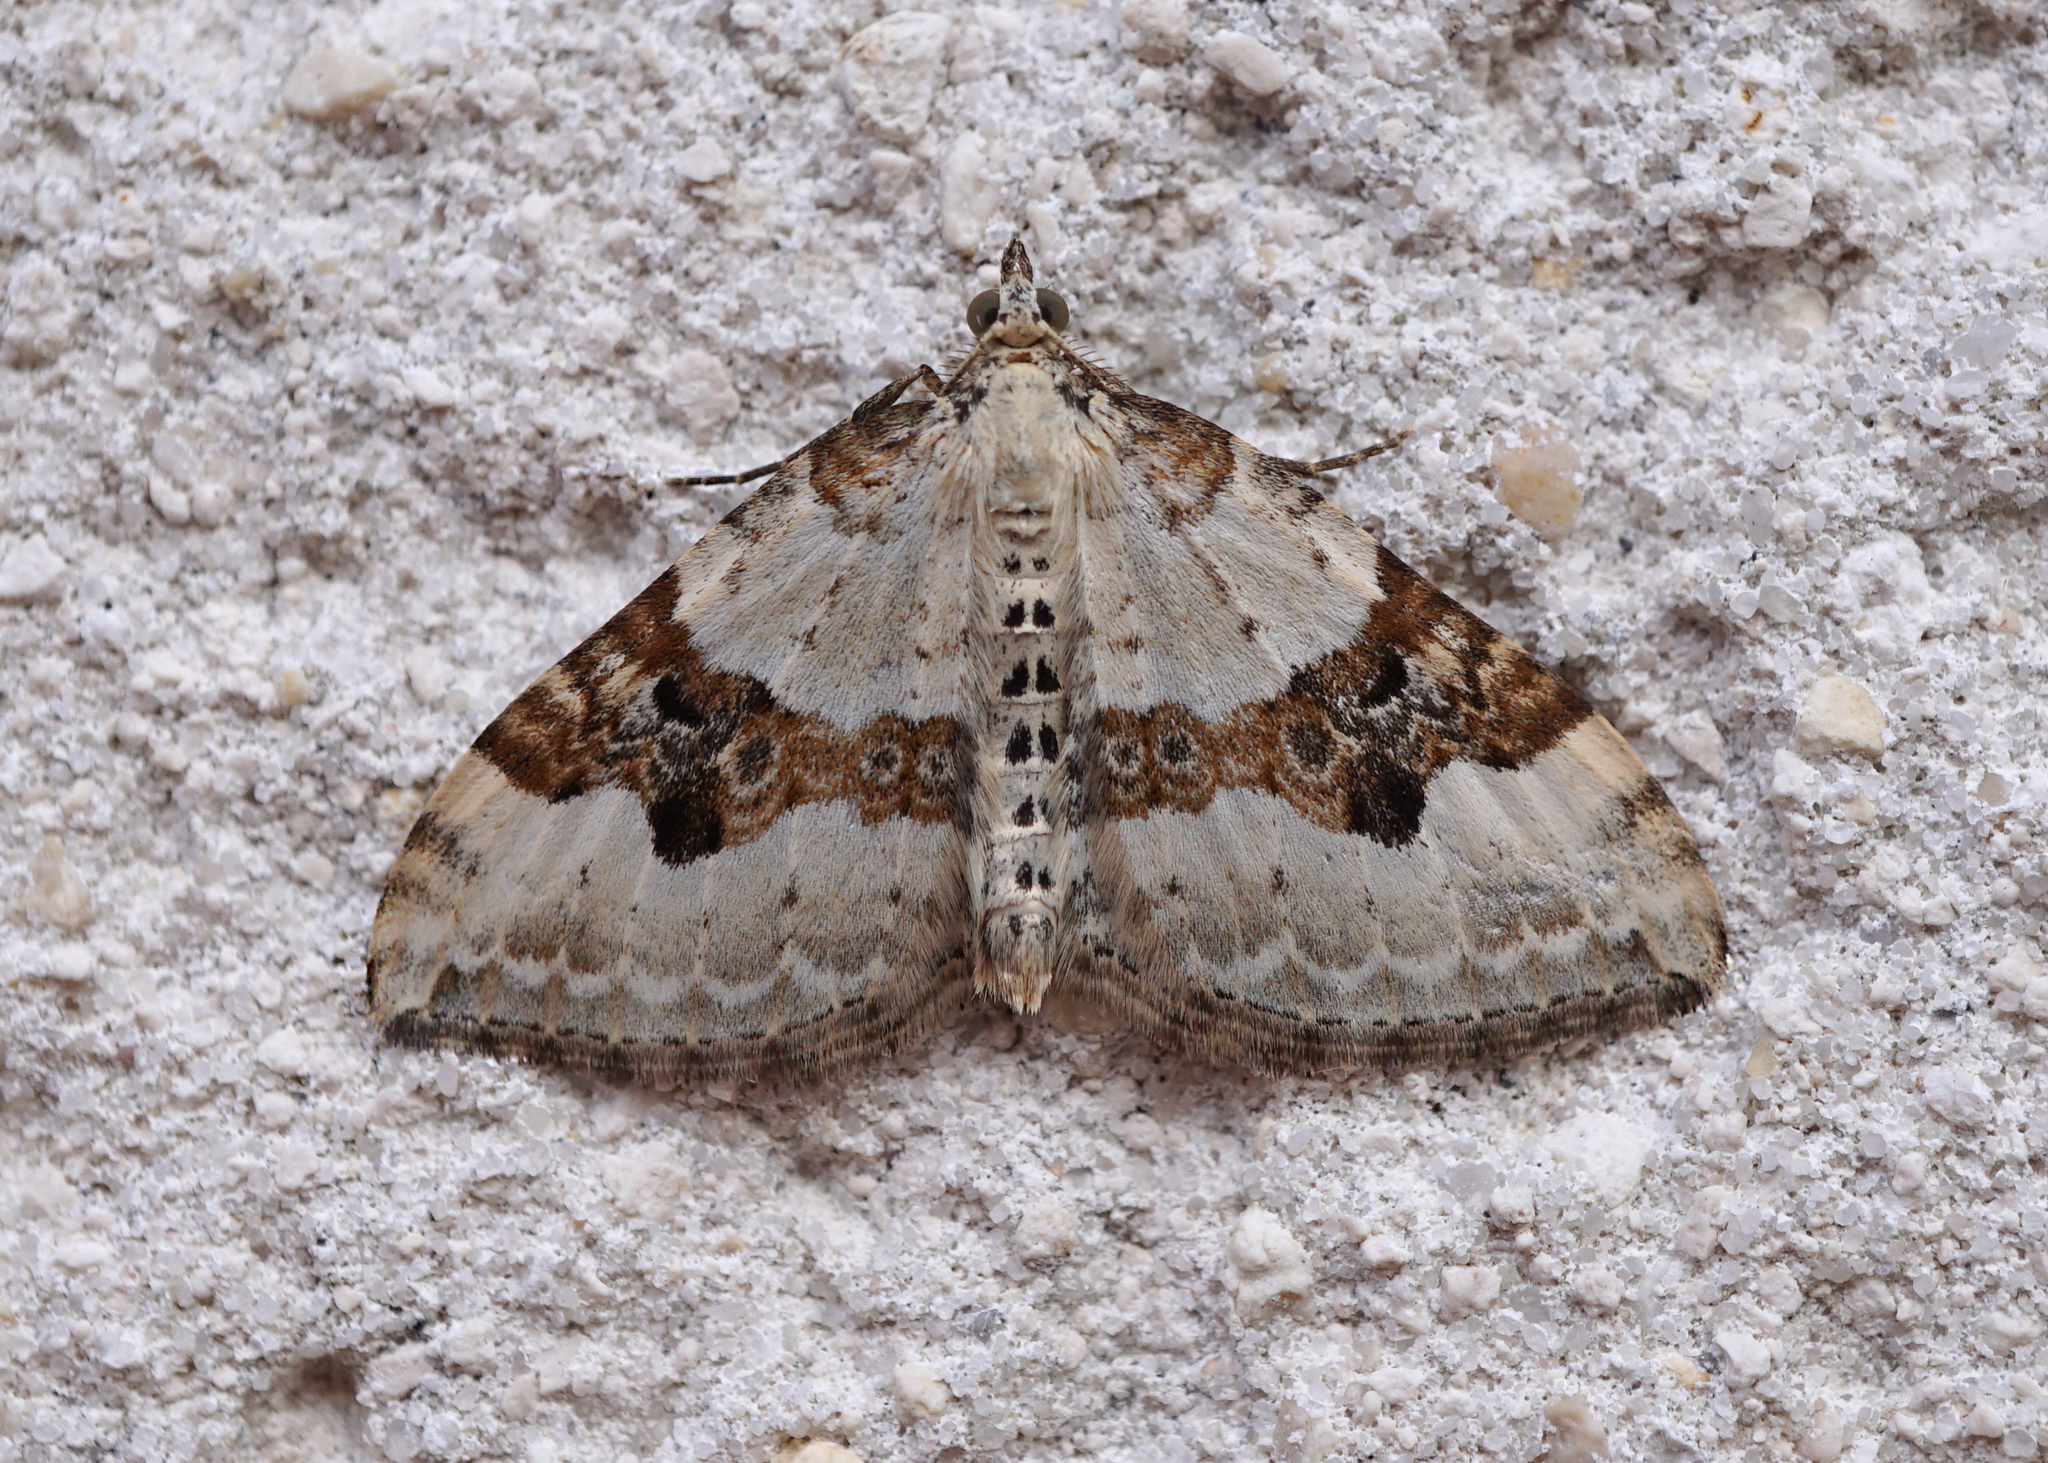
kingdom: Animalia
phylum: Arthropoda
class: Insecta
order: Lepidoptera
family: Geometridae
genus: Xanthorhoe
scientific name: Xanthorhoe montanata
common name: Silver-ground carpet
